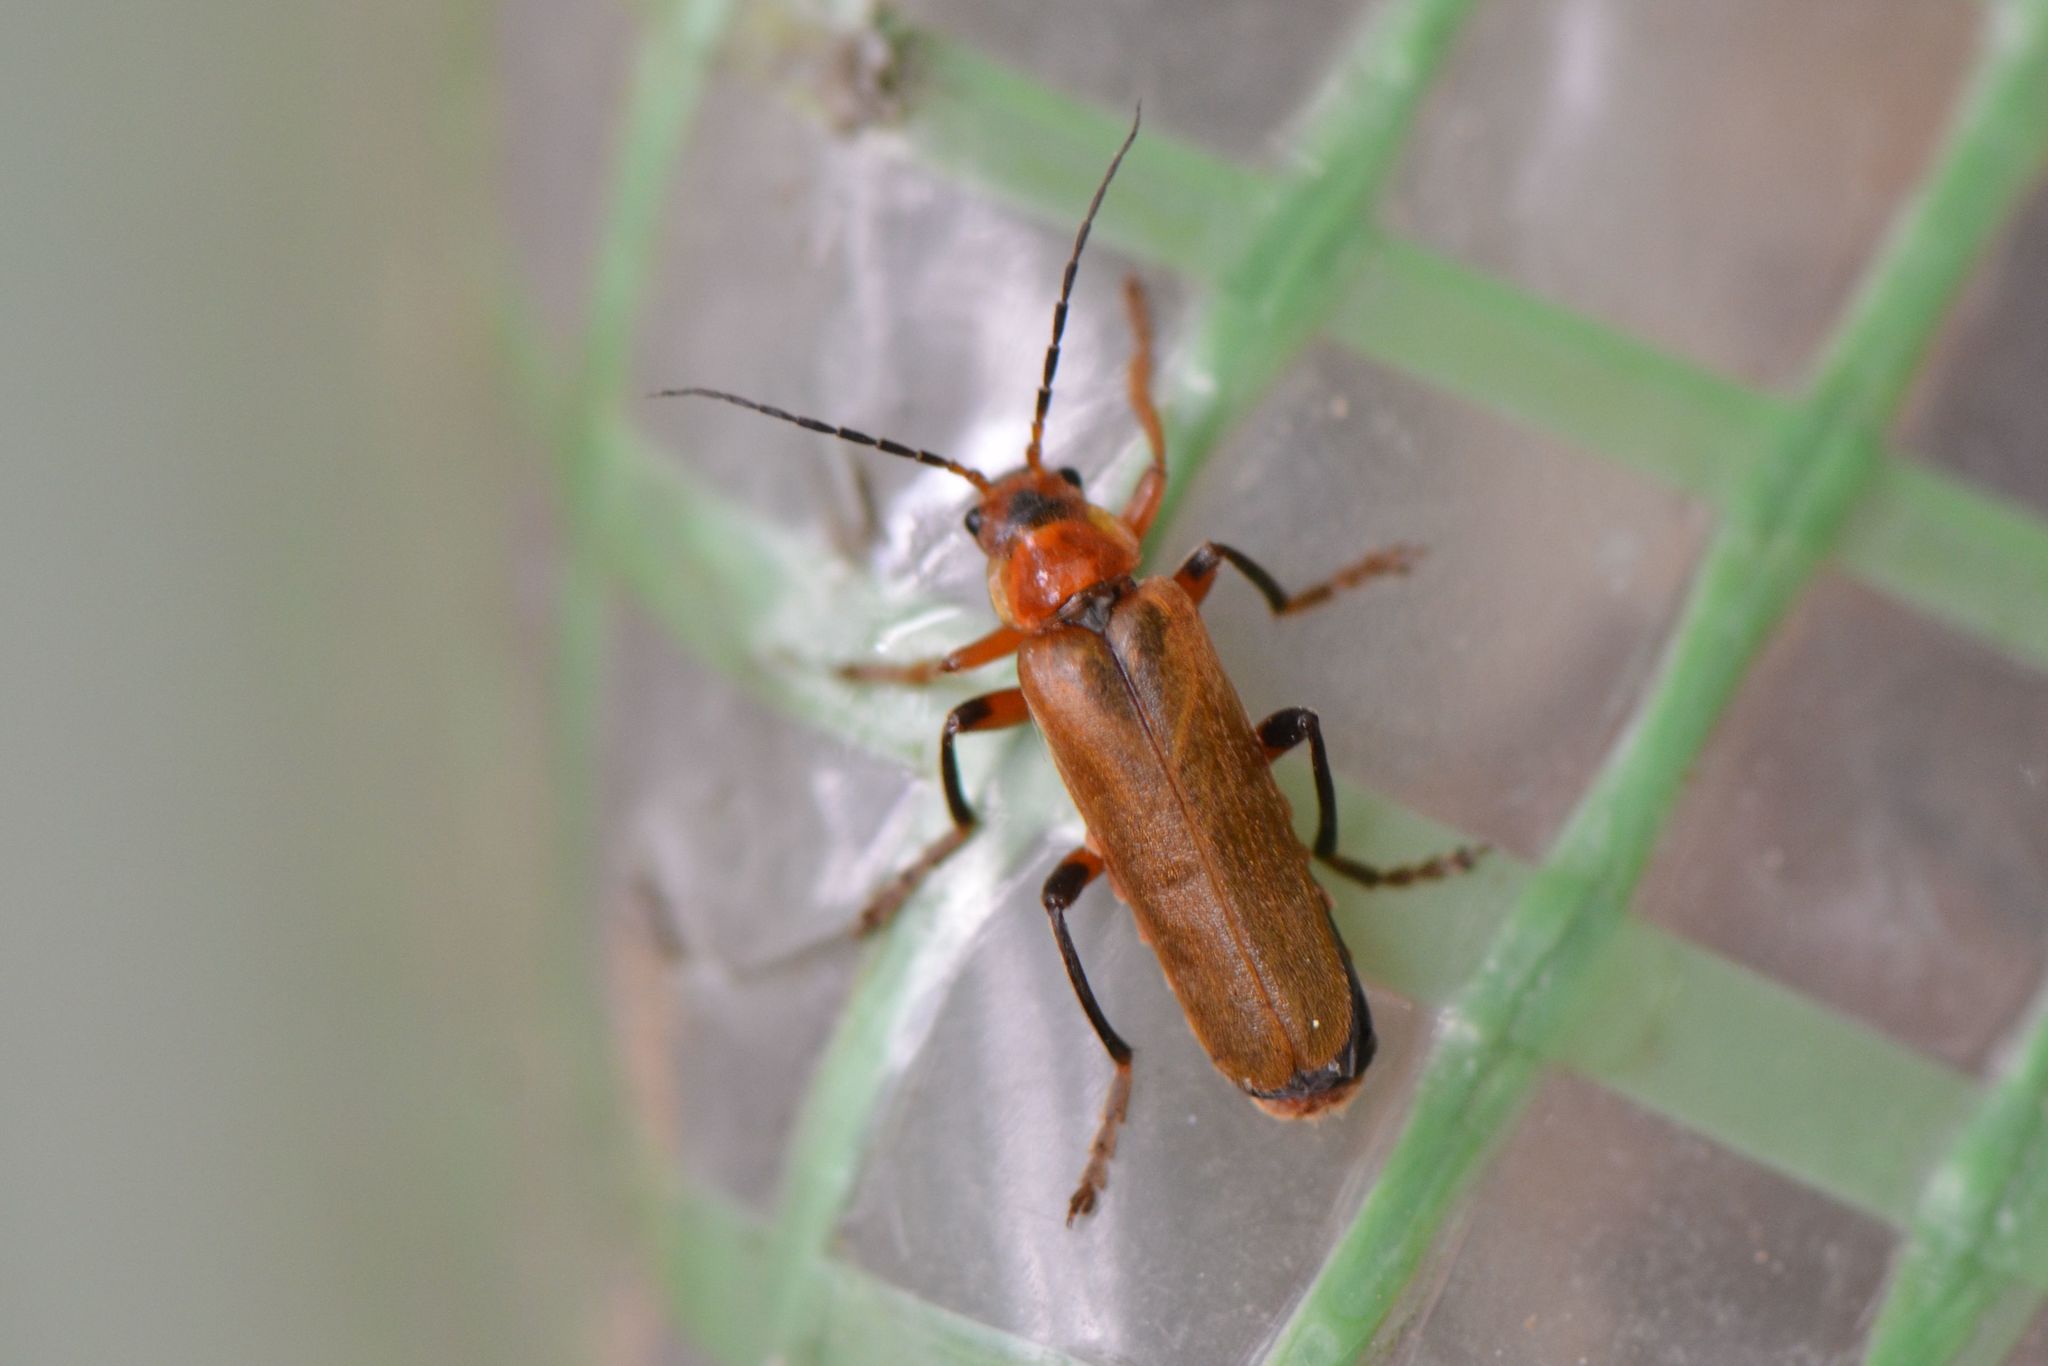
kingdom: Animalia
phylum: Arthropoda
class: Insecta
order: Coleoptera
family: Cantharidae
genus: Cantharis
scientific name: Cantharis livida
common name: Livid soldier beetle
